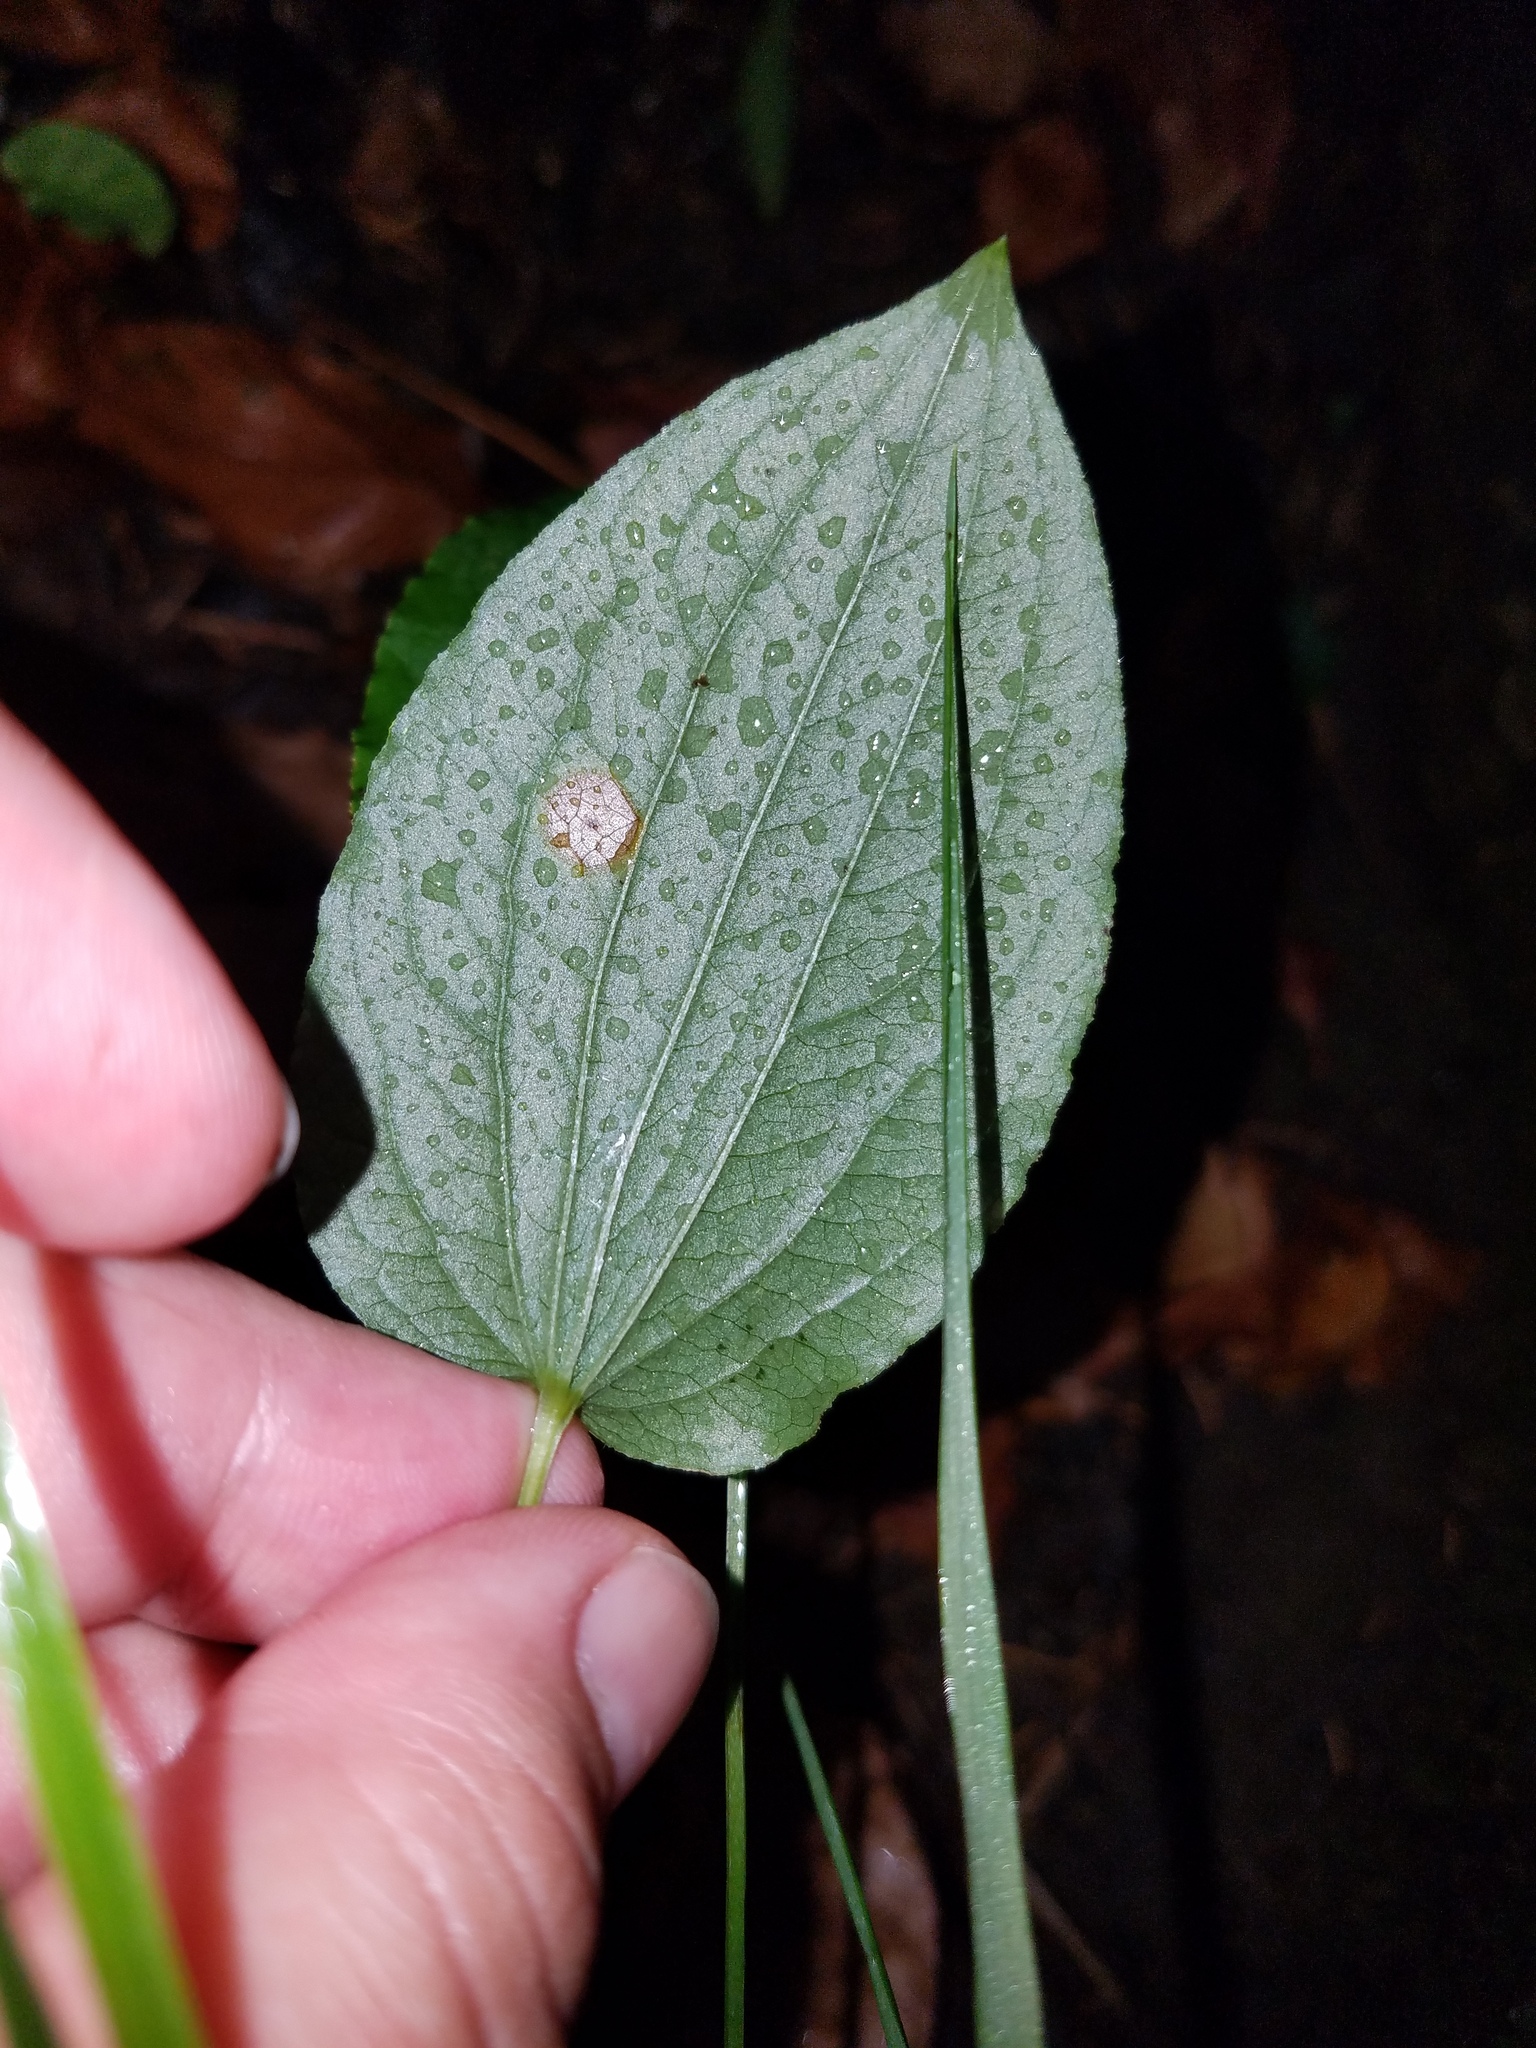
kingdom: Plantae
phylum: Tracheophyta
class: Liliopsida
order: Liliales
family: Smilacaceae
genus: Smilax
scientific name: Smilax pulverulenta
